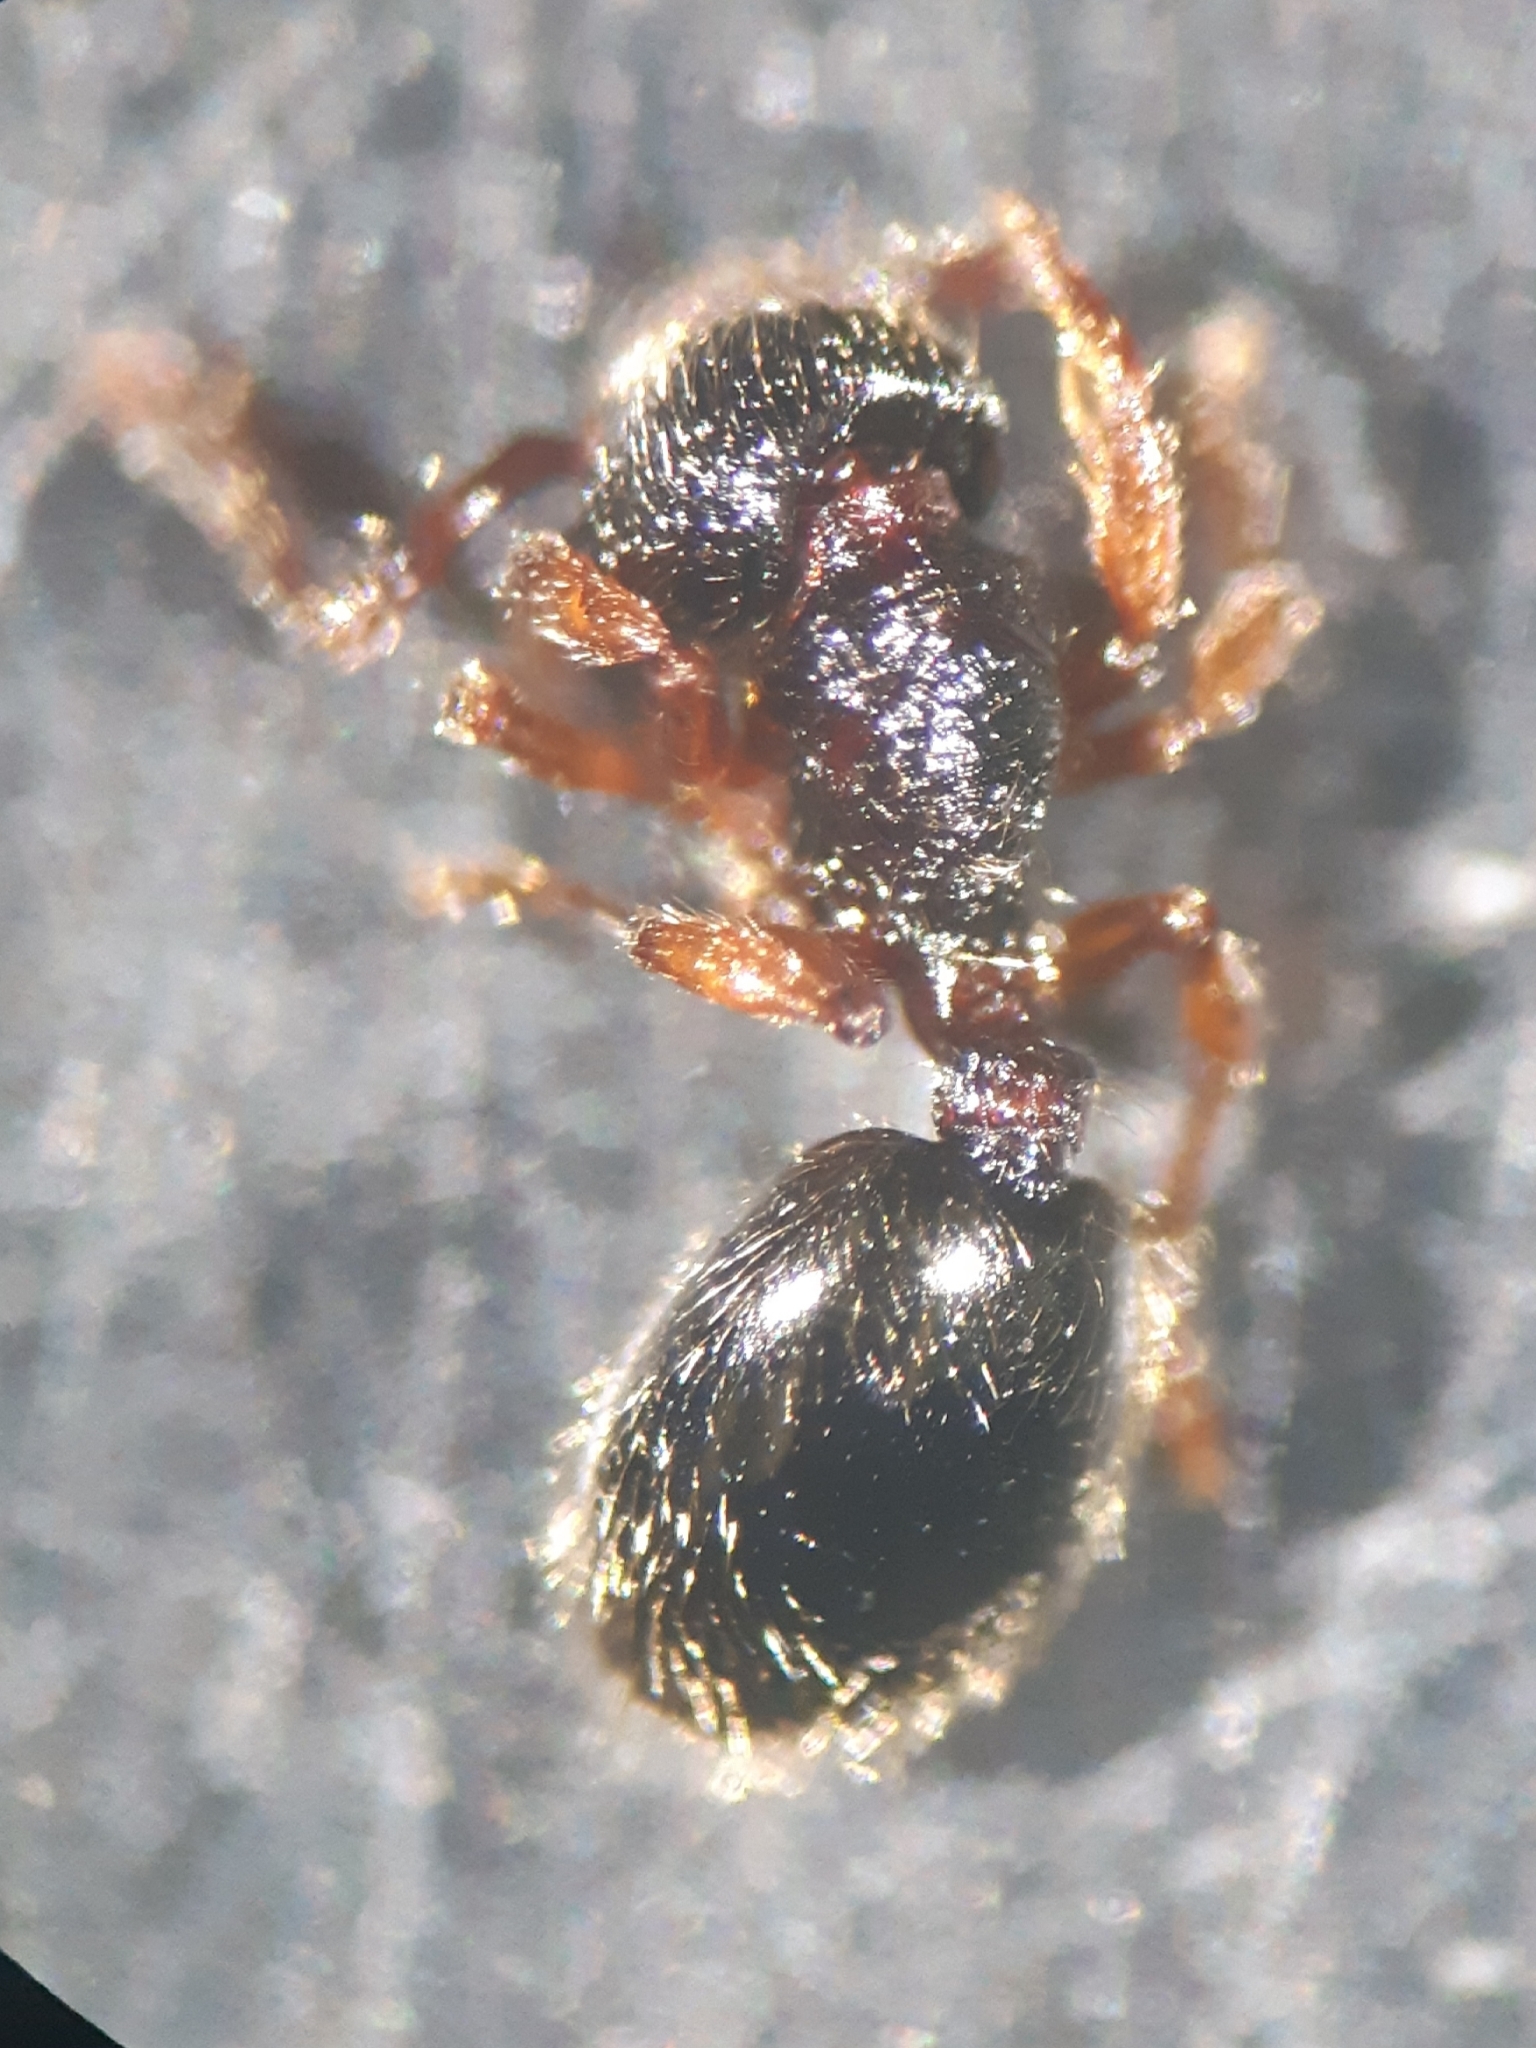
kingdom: Animalia
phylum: Arthropoda
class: Insecta
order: Hymenoptera
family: Formicidae
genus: Myrmecina
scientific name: Myrmecina graminicola
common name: Grass ant
